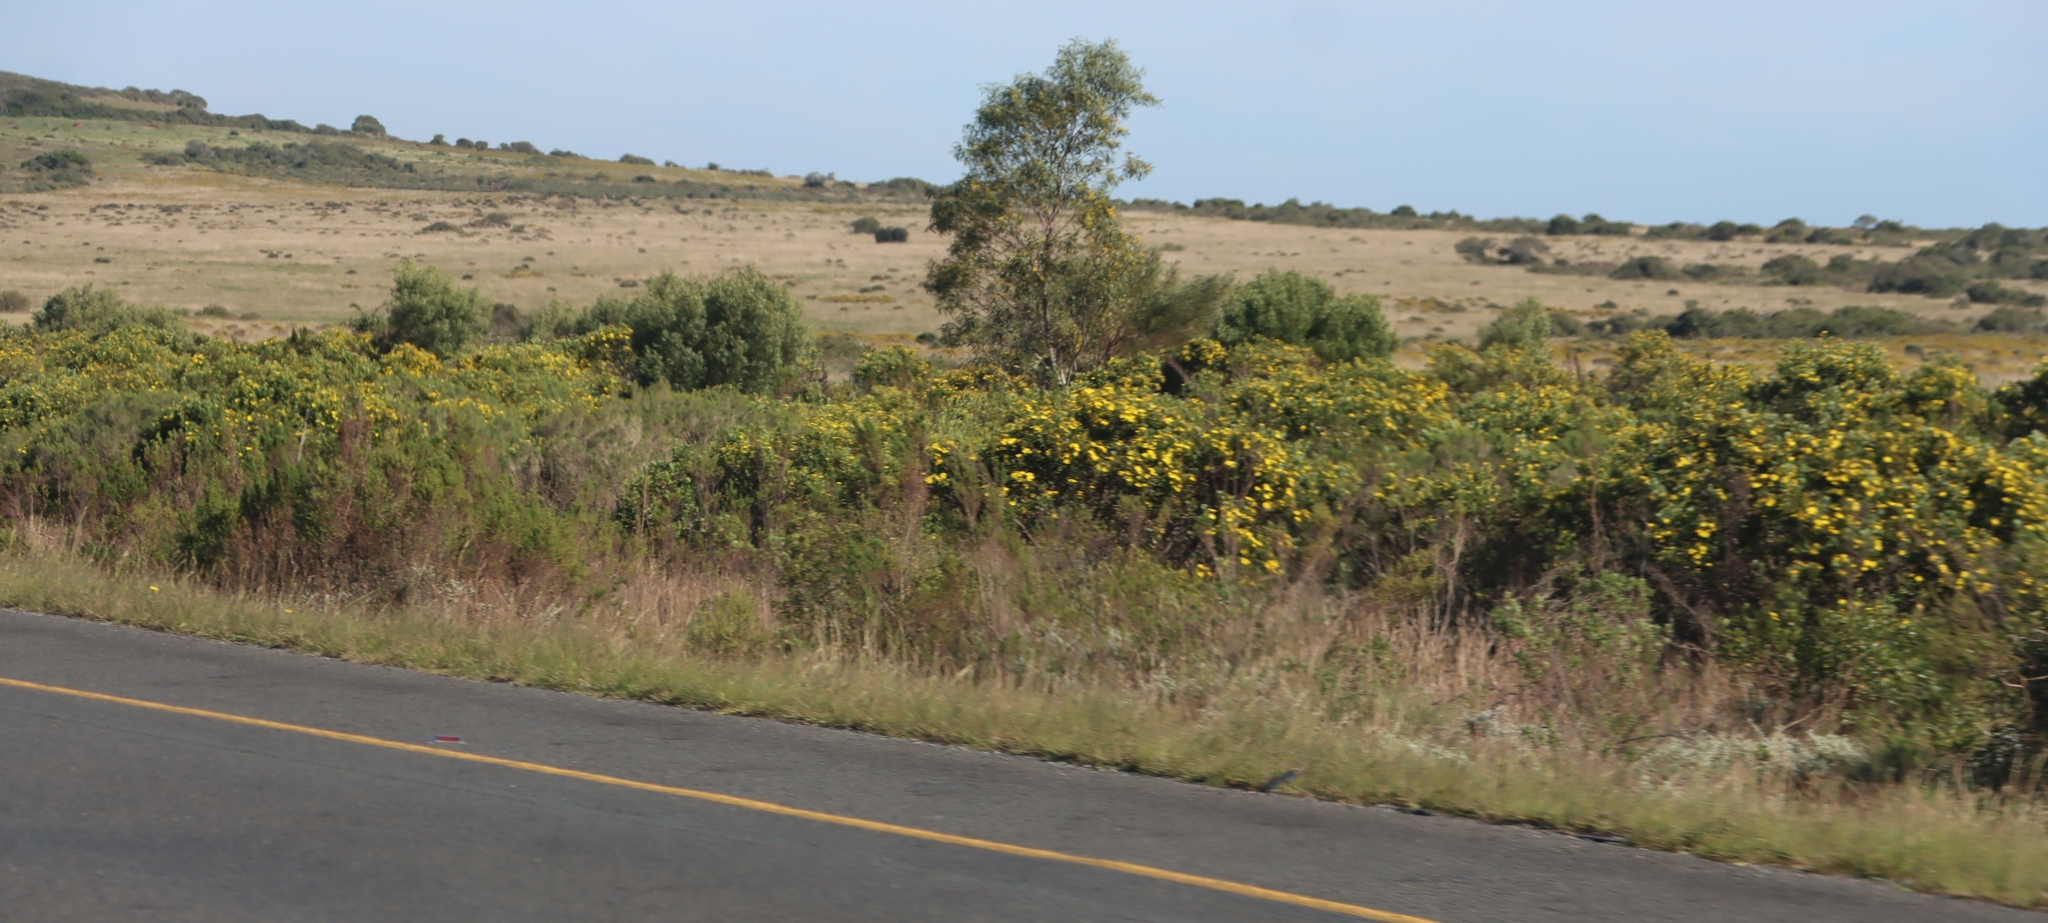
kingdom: Plantae
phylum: Tracheophyta
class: Magnoliopsida
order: Fabales
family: Fabaceae
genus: Acacia
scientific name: Acacia saligna
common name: Orange wattle
